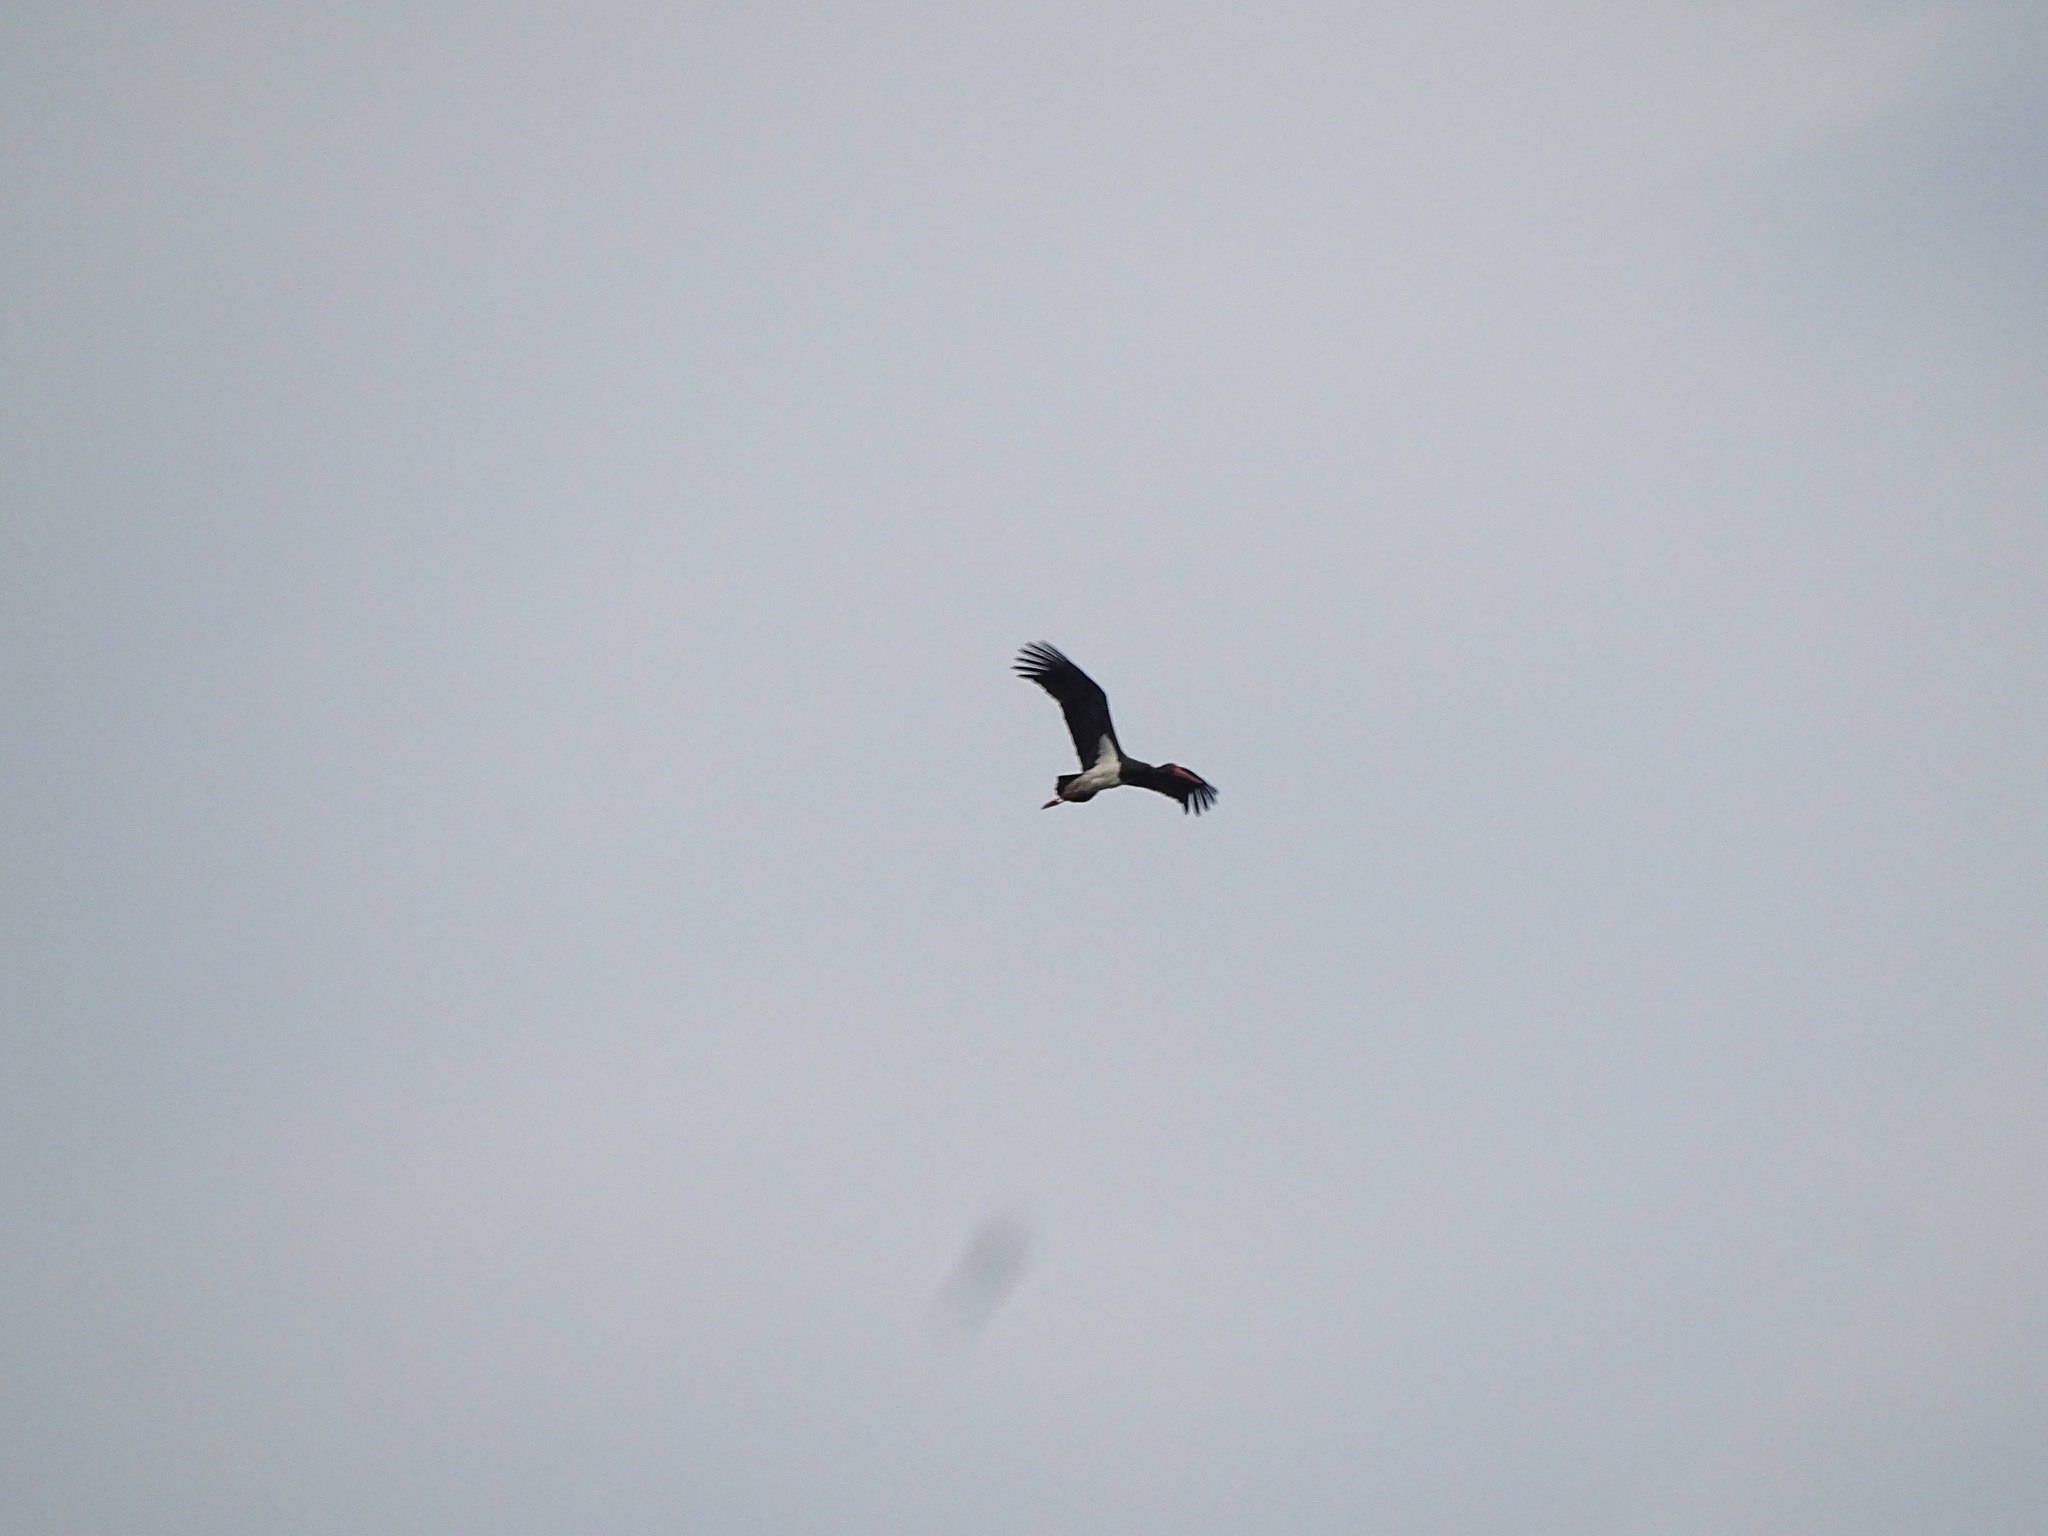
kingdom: Animalia
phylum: Chordata
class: Aves
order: Ciconiiformes
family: Ciconiidae
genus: Ciconia
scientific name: Ciconia nigra
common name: Black stork
